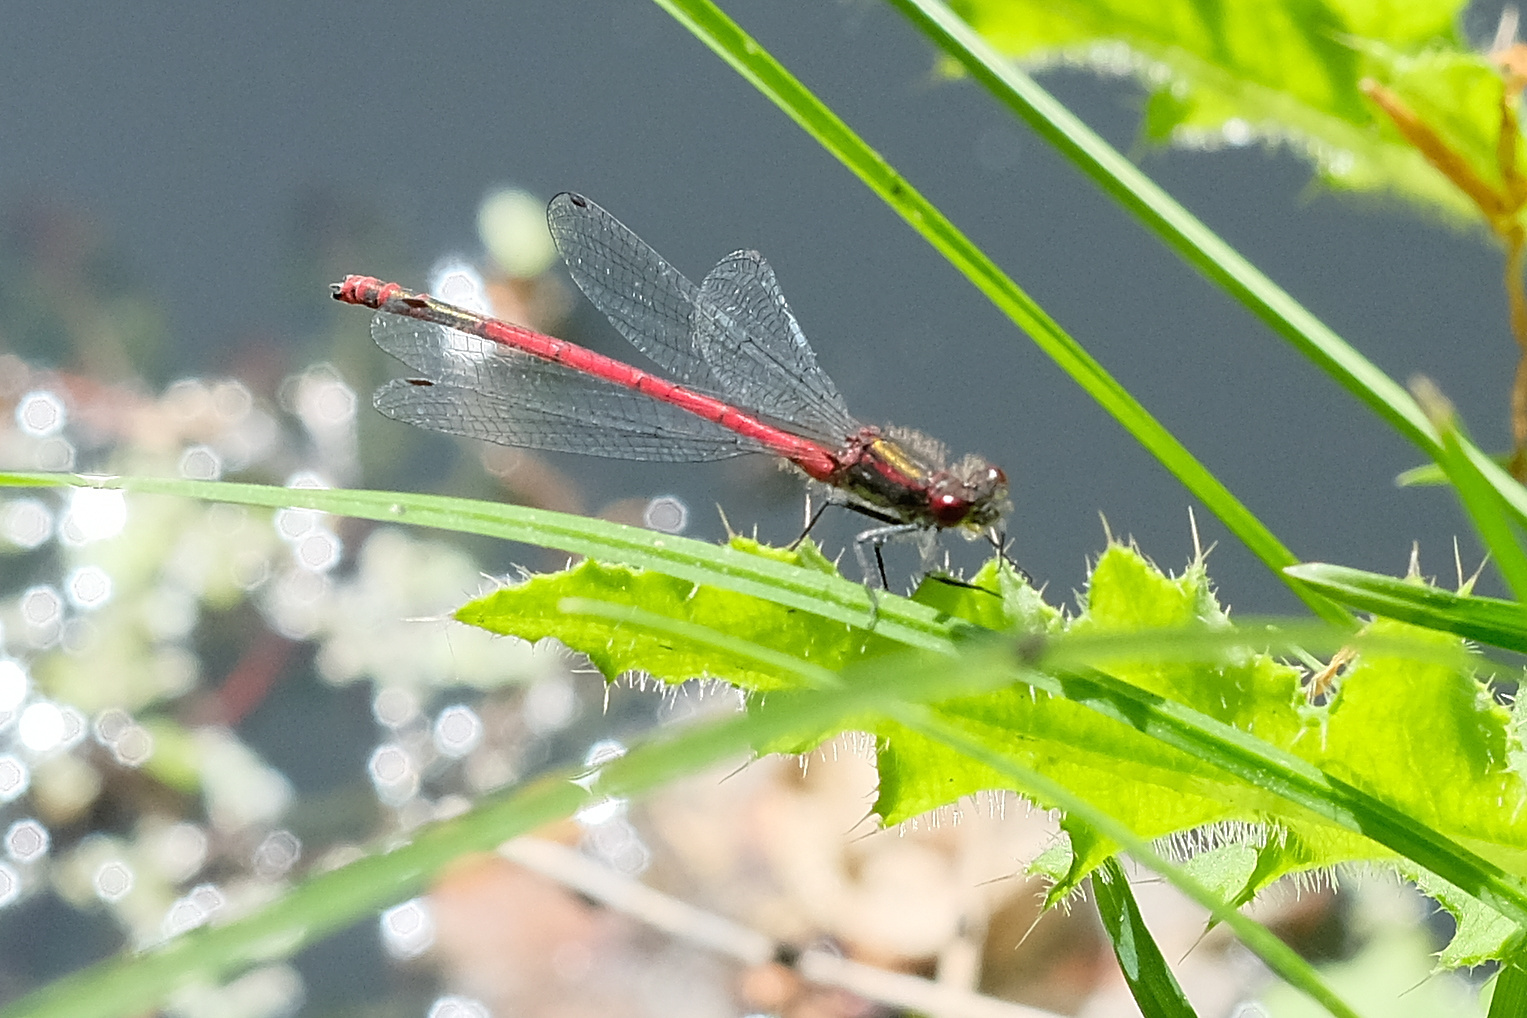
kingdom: Animalia
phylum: Arthropoda
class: Insecta
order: Odonata
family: Coenagrionidae
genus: Pyrrhosoma
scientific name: Pyrrhosoma nymphula
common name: Large red damsel
